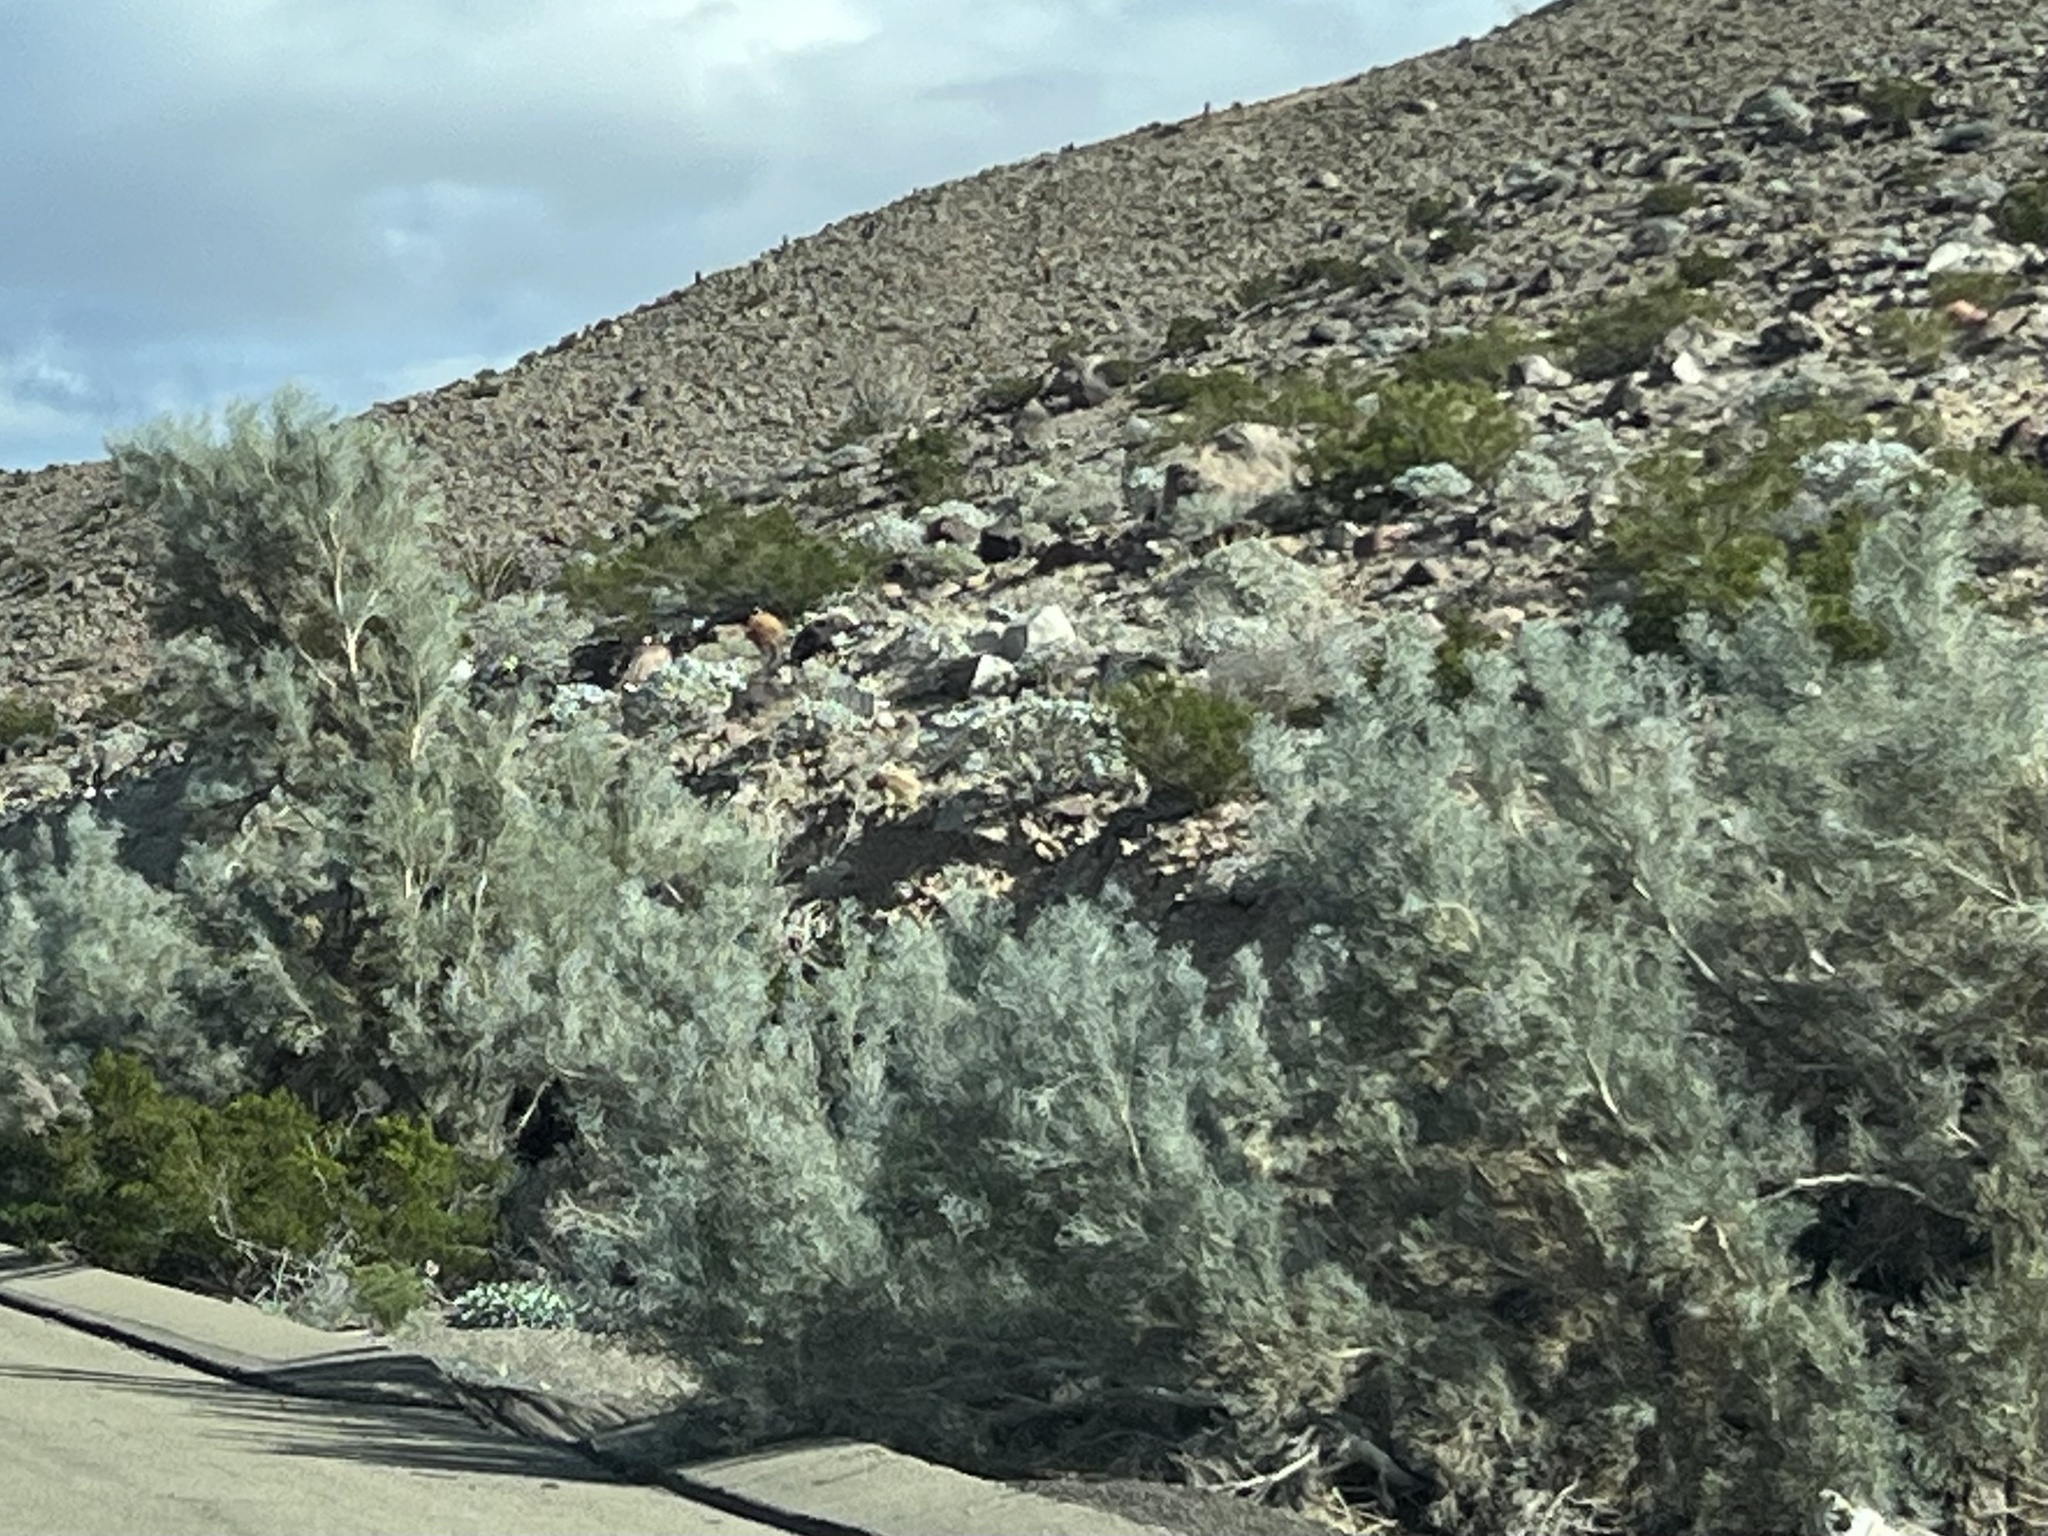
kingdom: Plantae
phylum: Tracheophyta
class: Magnoliopsida
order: Fabales
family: Fabaceae
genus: Psorothamnus
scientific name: Psorothamnus spinosus
